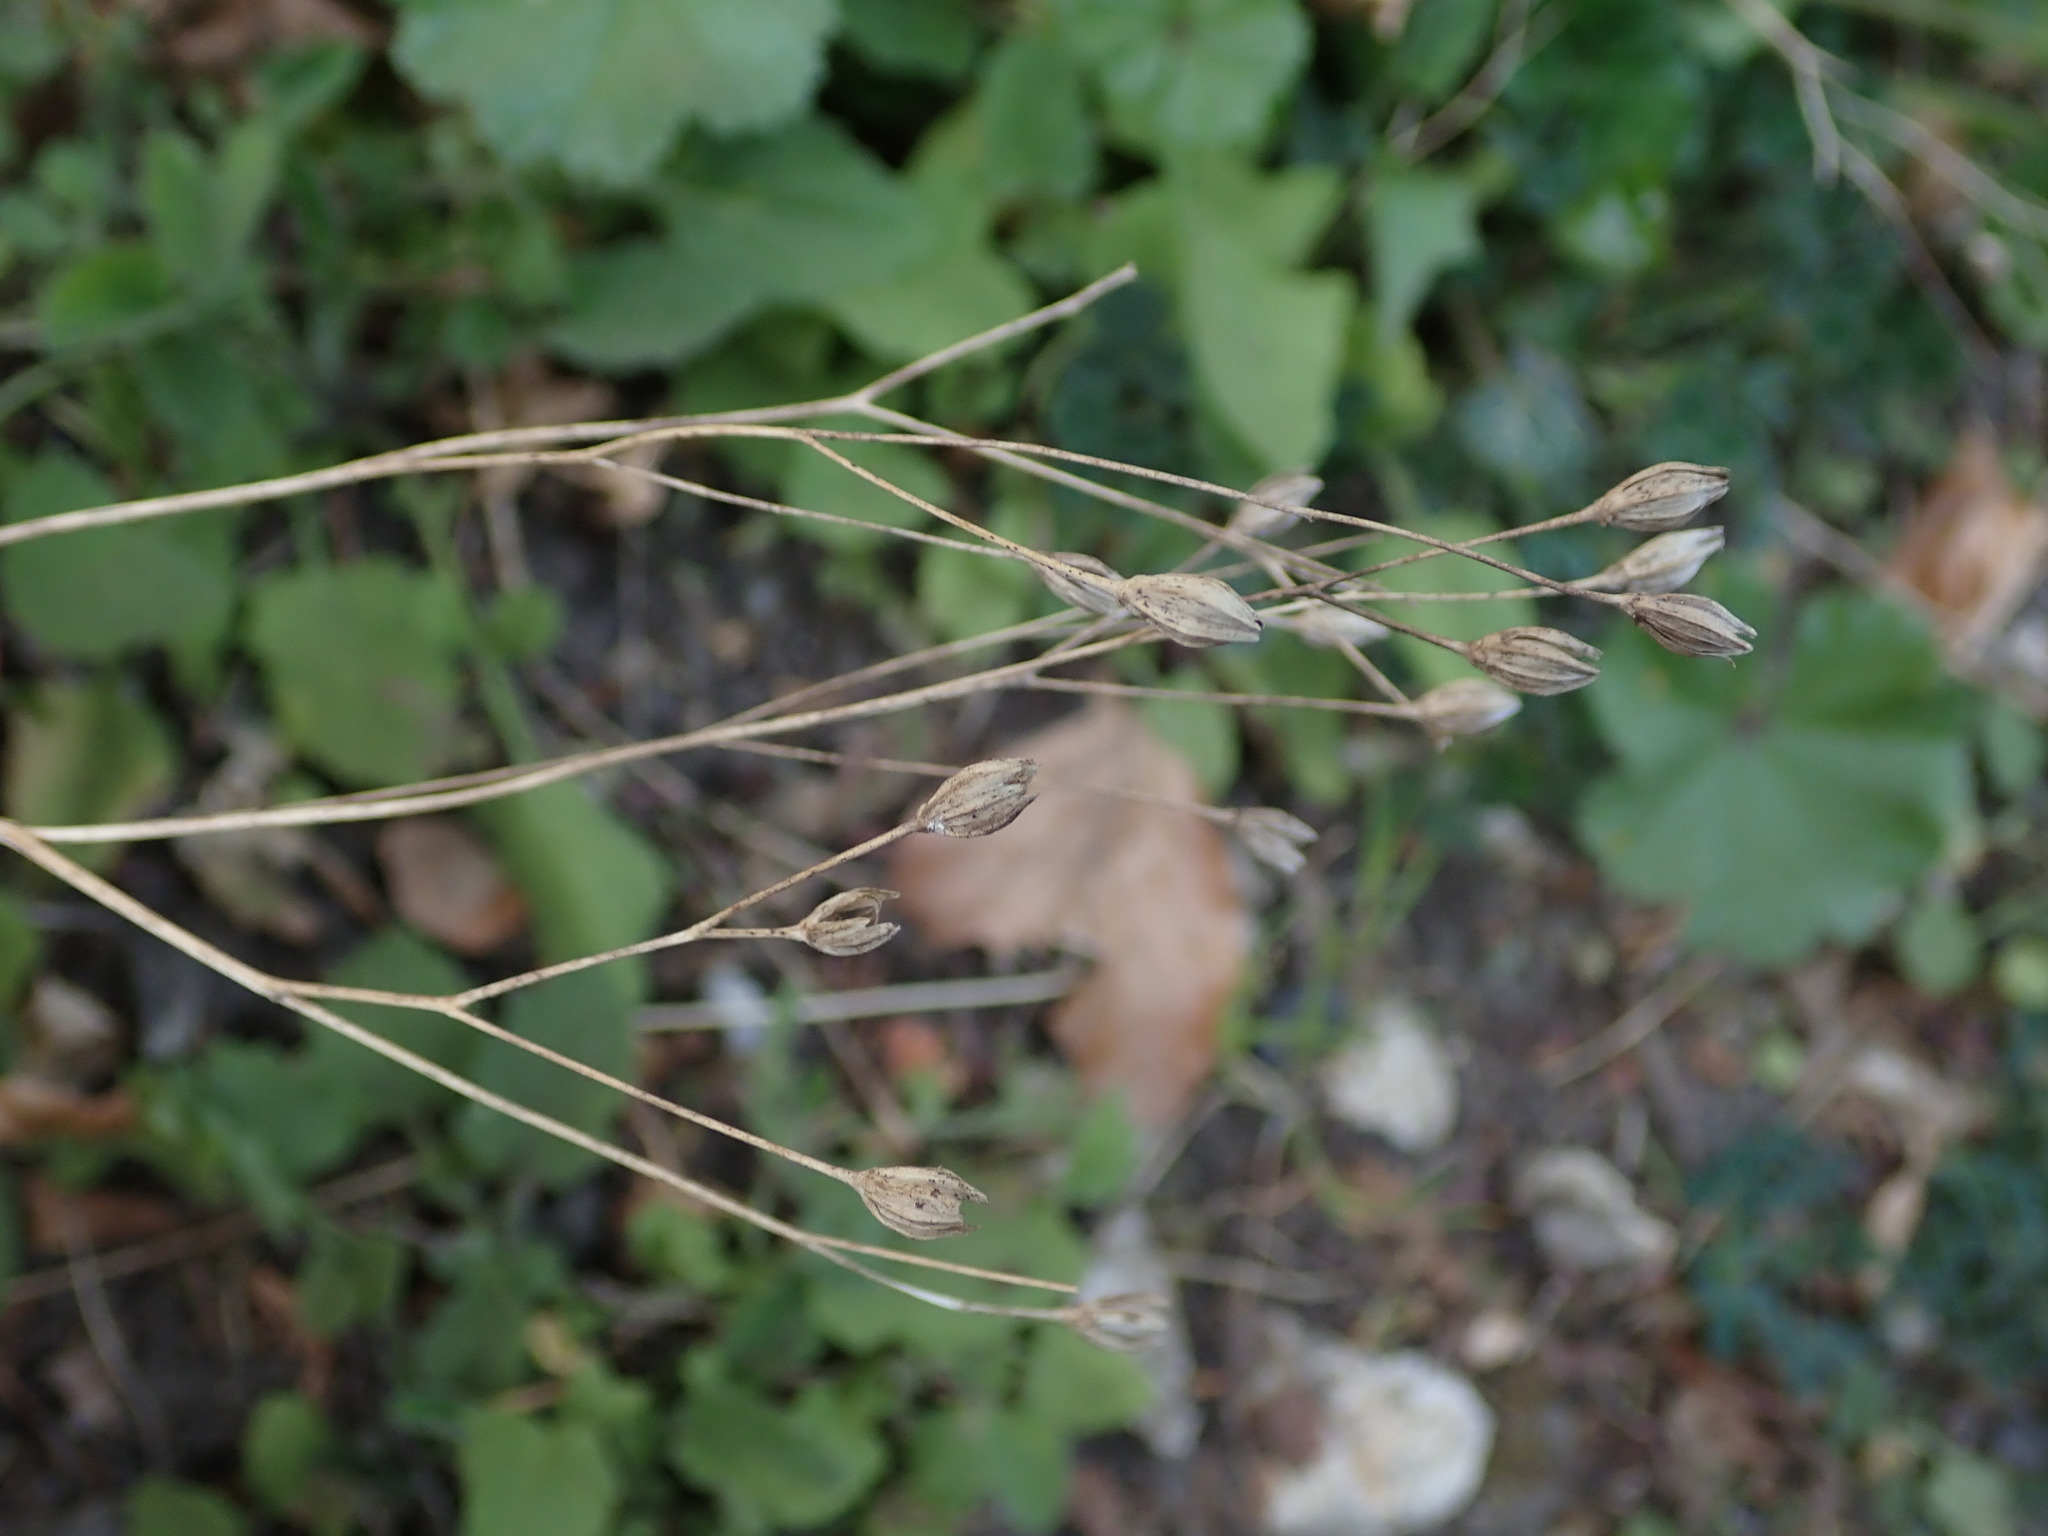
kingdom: Plantae
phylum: Tracheophyta
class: Magnoliopsida
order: Asterales
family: Asteraceae
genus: Lapsana
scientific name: Lapsana communis
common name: Nipplewort
